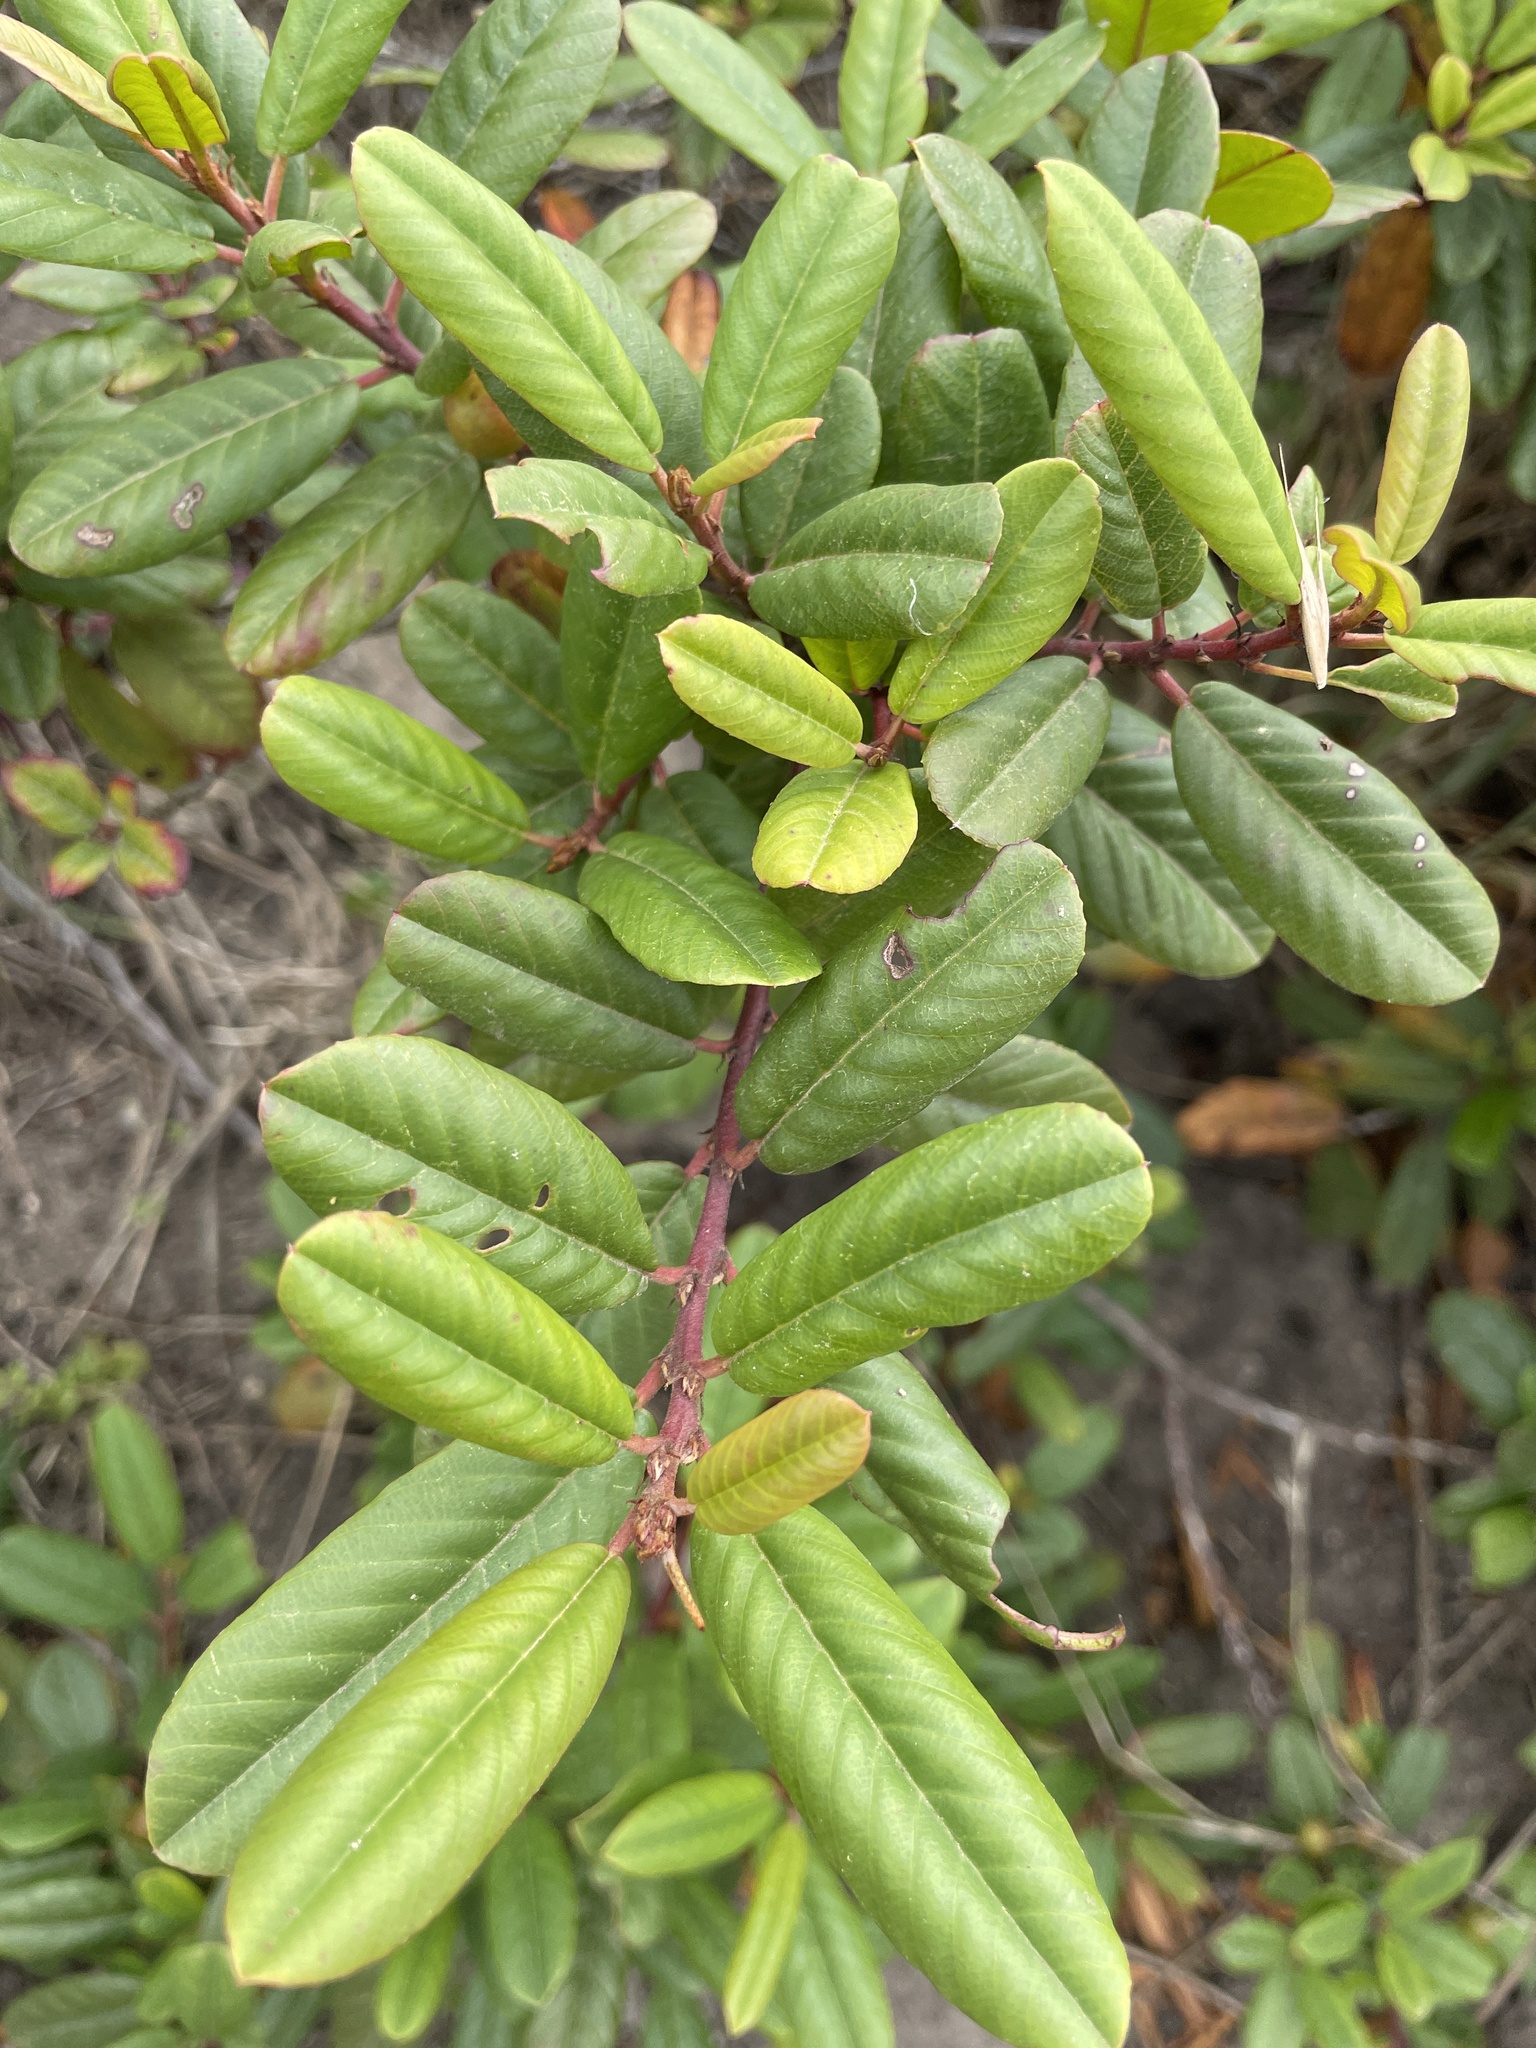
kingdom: Plantae
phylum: Tracheophyta
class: Magnoliopsida
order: Rosales
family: Rhamnaceae
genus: Frangula
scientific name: Frangula californica
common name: California buckthorn
